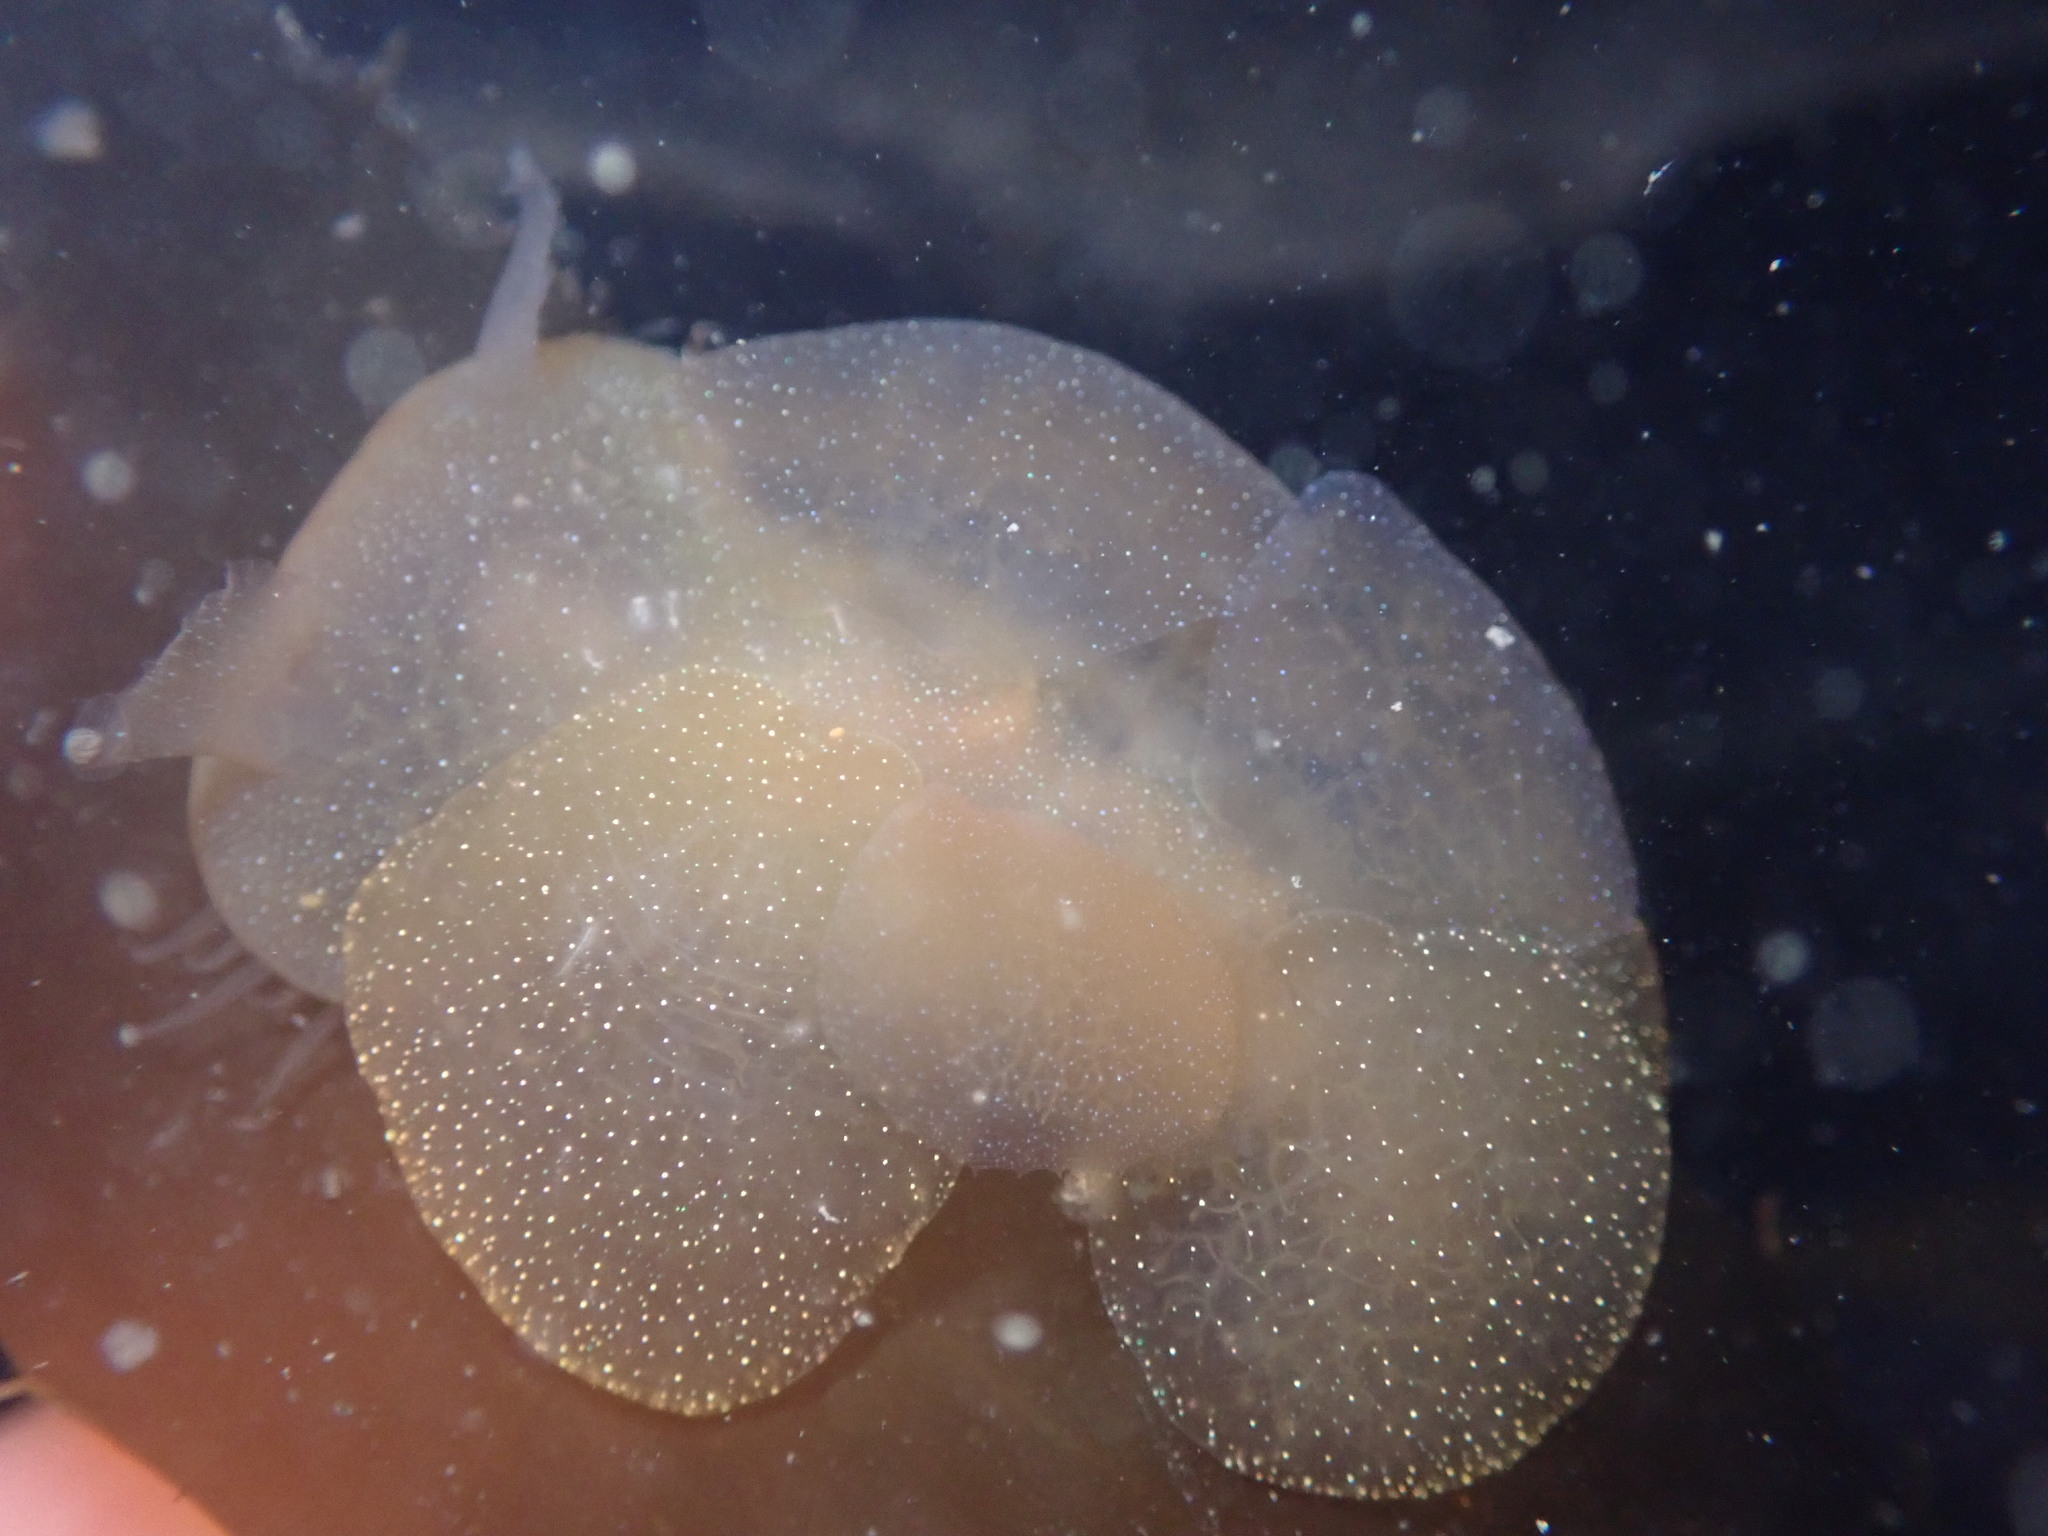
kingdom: Animalia
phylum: Mollusca
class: Gastropoda
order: Nudibranchia
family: Tethydidae
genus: Melibe
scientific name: Melibe leonina
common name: Lion nudibranch
